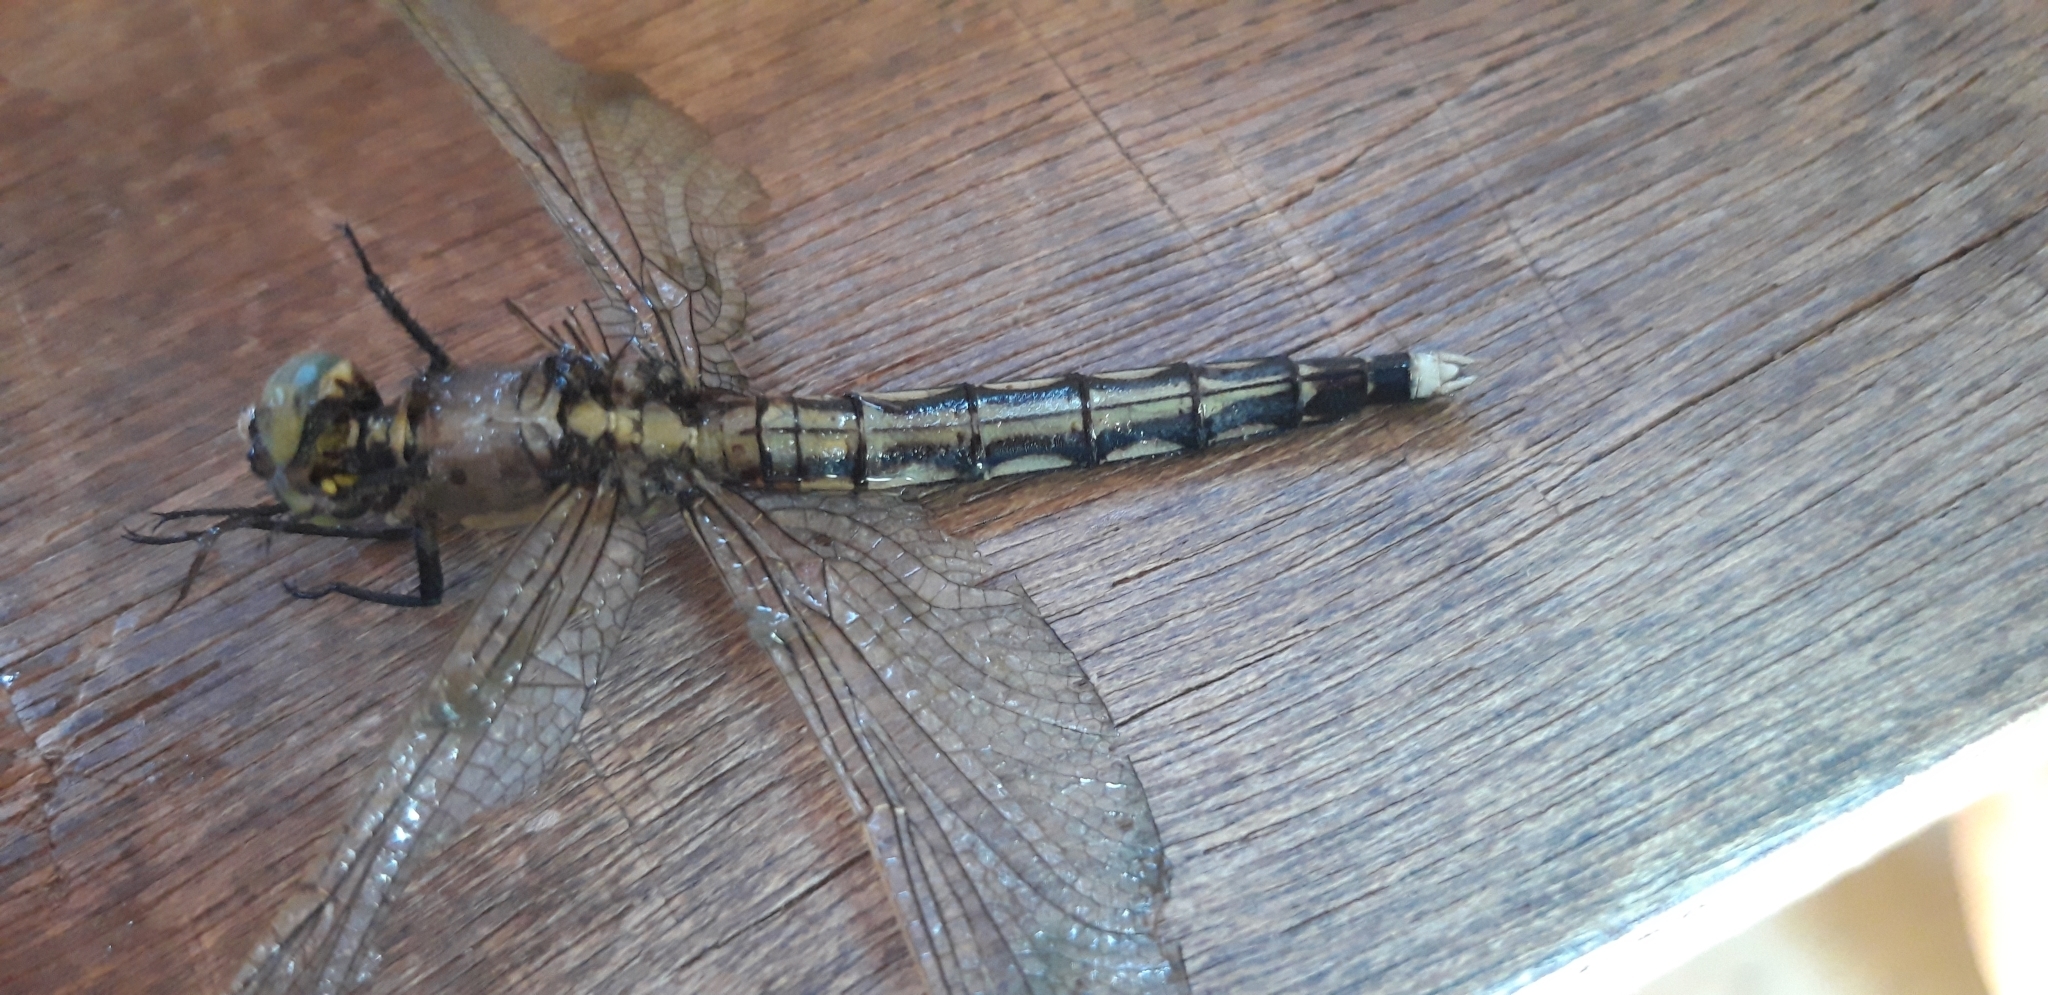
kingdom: Animalia
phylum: Arthropoda
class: Insecta
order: Odonata
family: Libellulidae
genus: Orthetrum
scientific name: Orthetrum albistylum
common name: White-tailed skimmer
